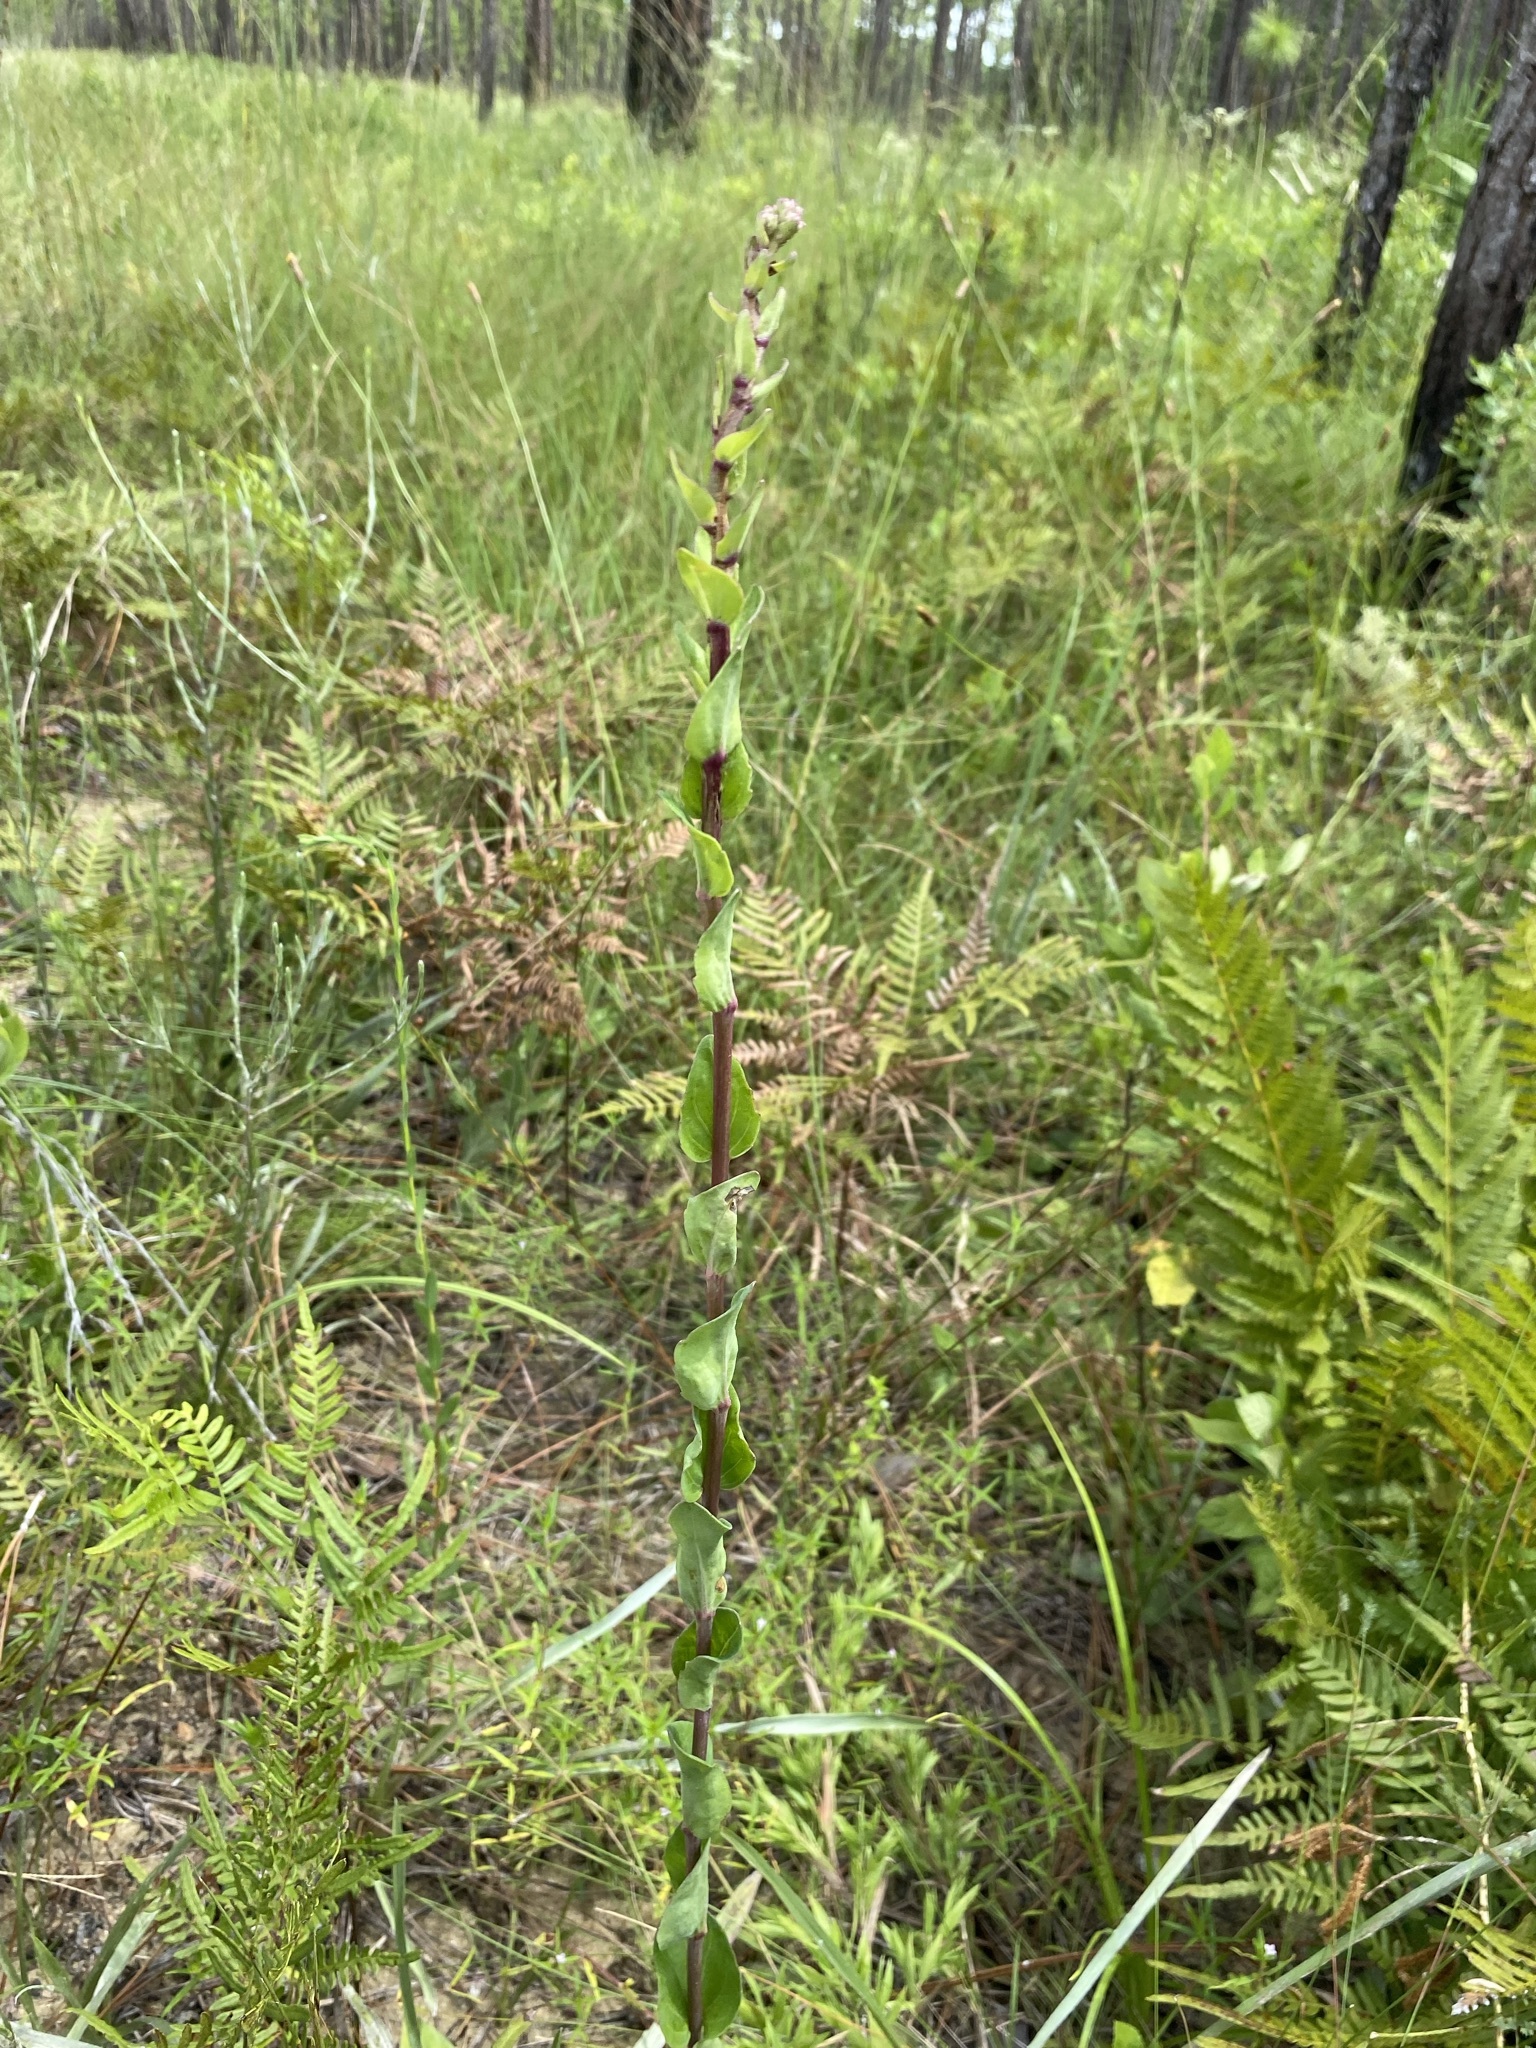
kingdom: Plantae
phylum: Tracheophyta
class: Magnoliopsida
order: Asterales
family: Asteraceae
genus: Carphephorus
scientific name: Carphephorus odoratissimus
